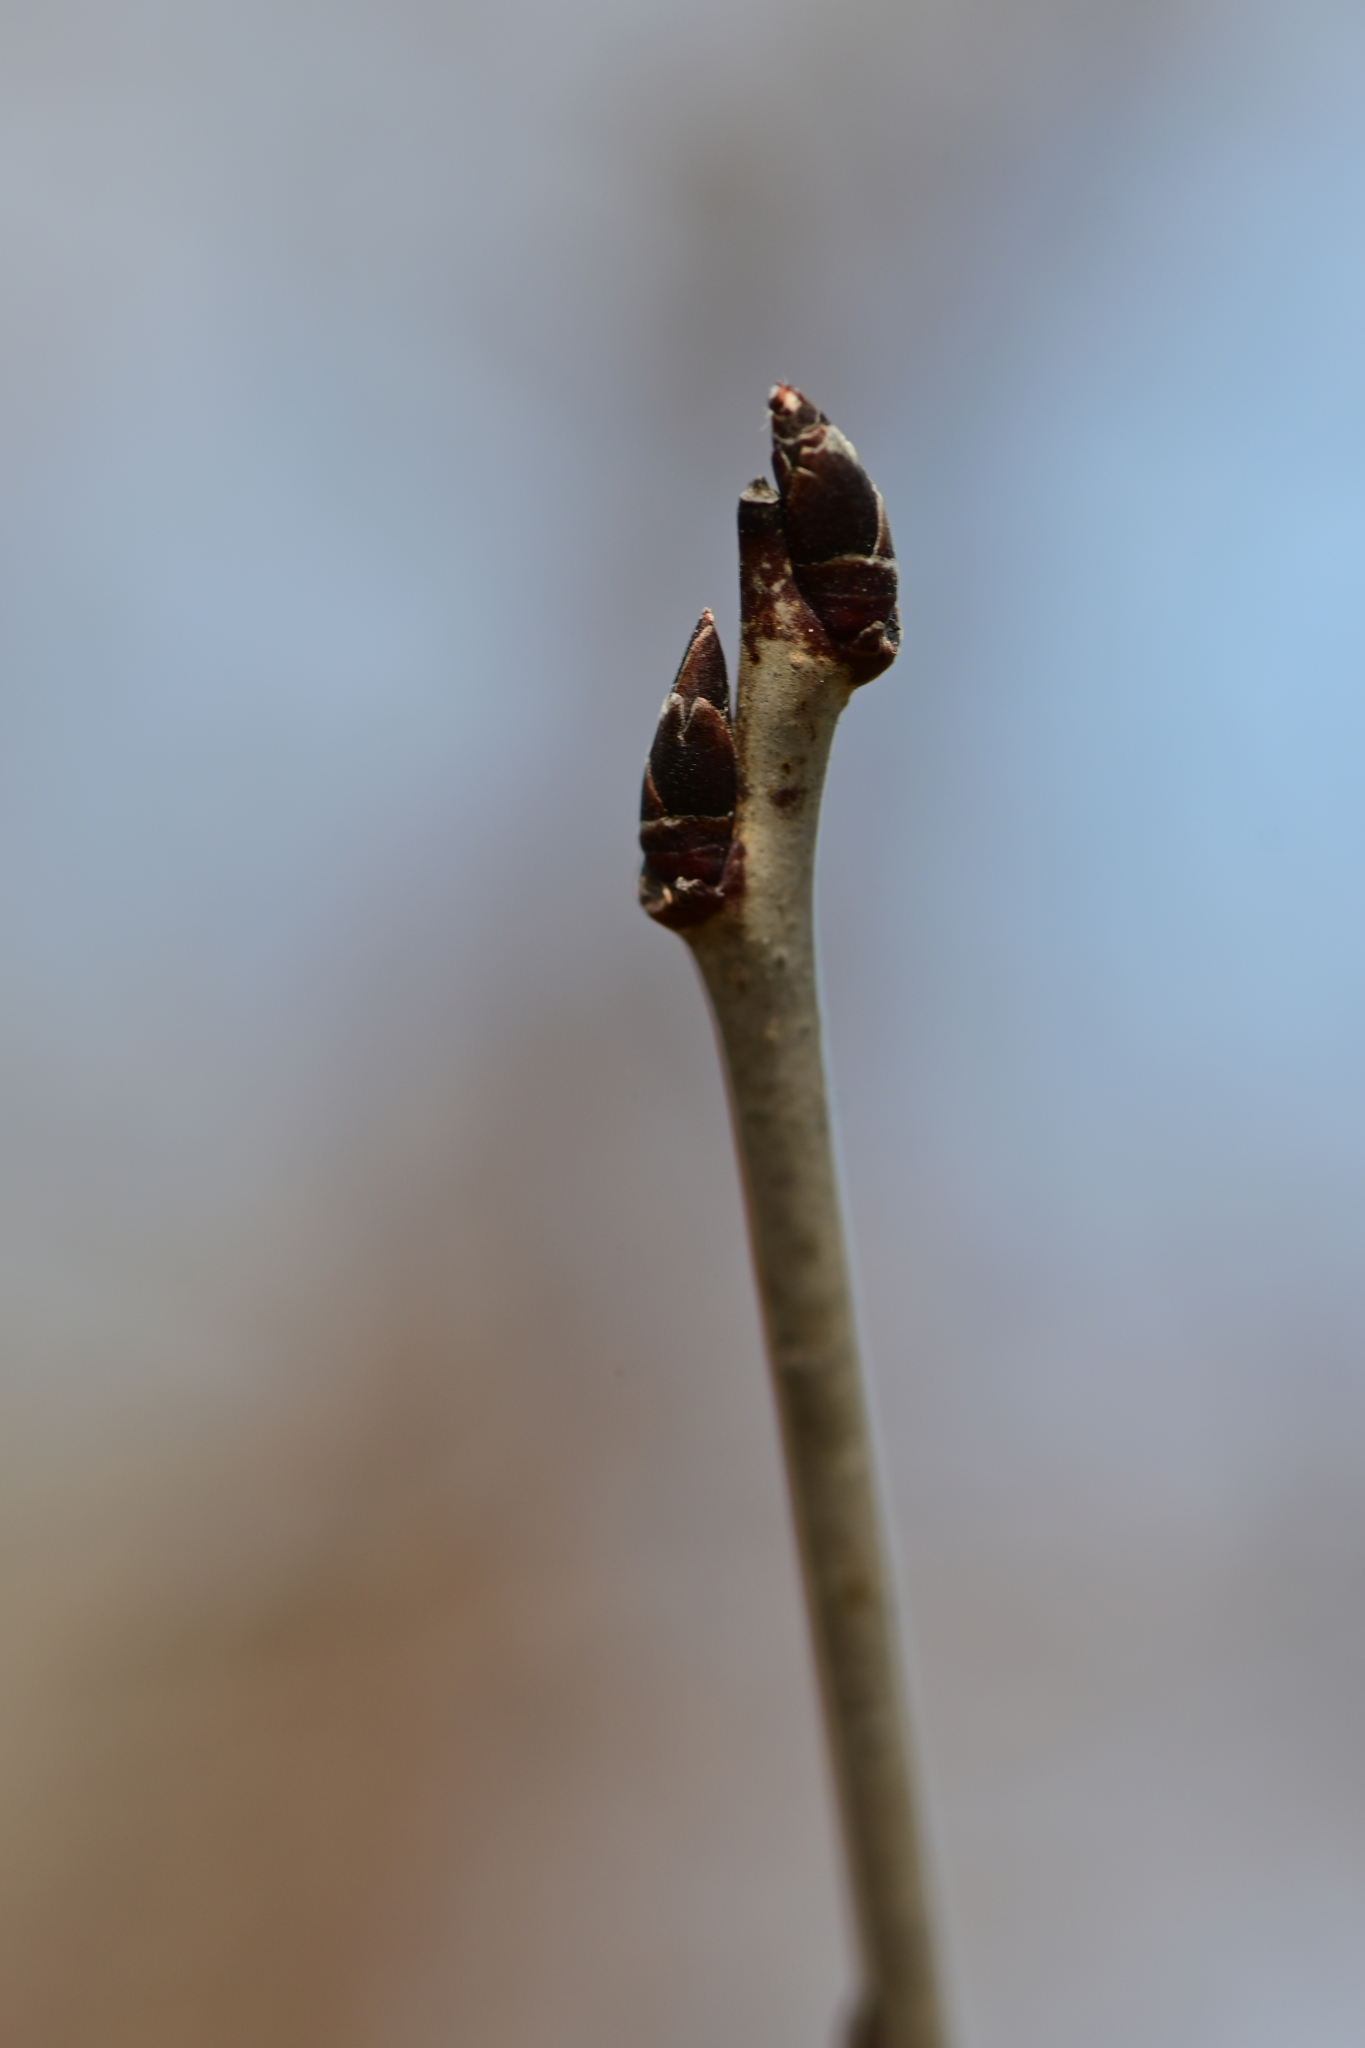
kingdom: Plantae
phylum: Tracheophyta
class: Magnoliopsida
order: Rosales
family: Rhamnaceae
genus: Rhamnus
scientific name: Rhamnus cathartica
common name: Common buckthorn
